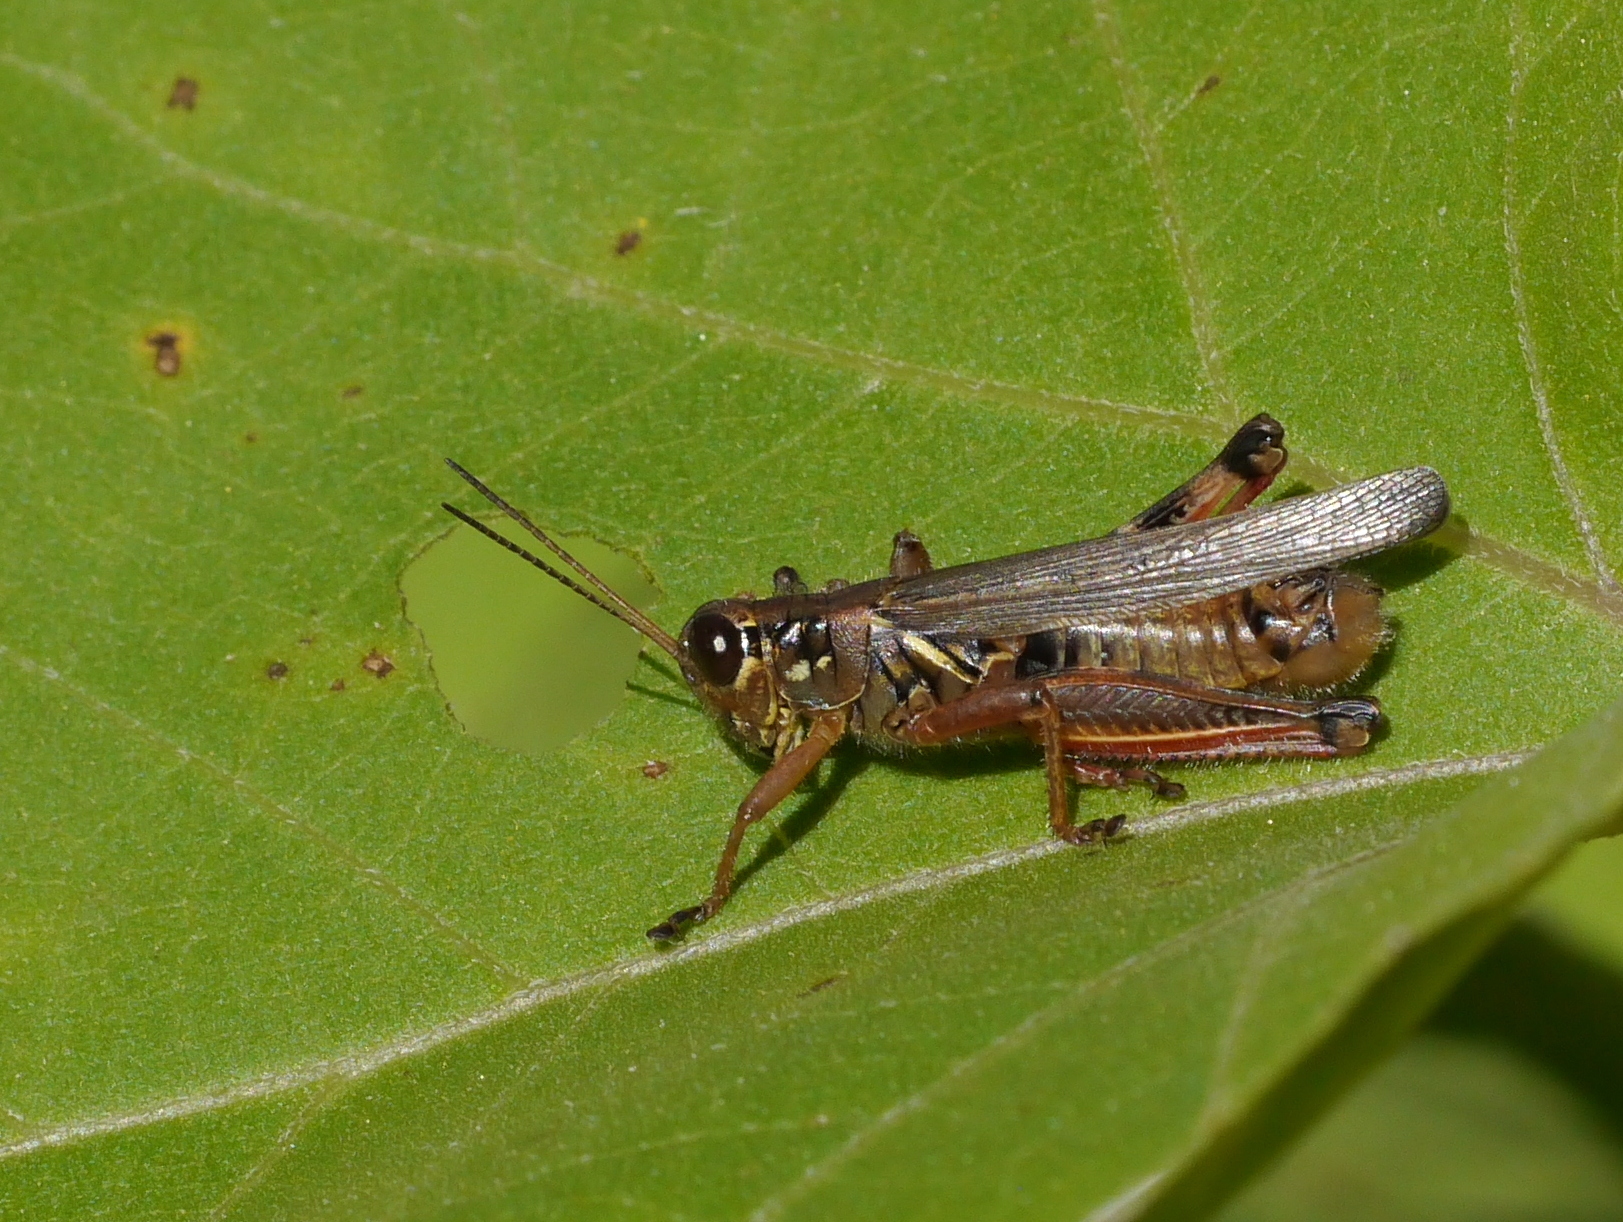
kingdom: Animalia
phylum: Arthropoda
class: Insecta
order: Orthoptera
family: Acrididae
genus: Melanoplus
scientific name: Melanoplus femurrubrum
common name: Red-legged grasshopper
